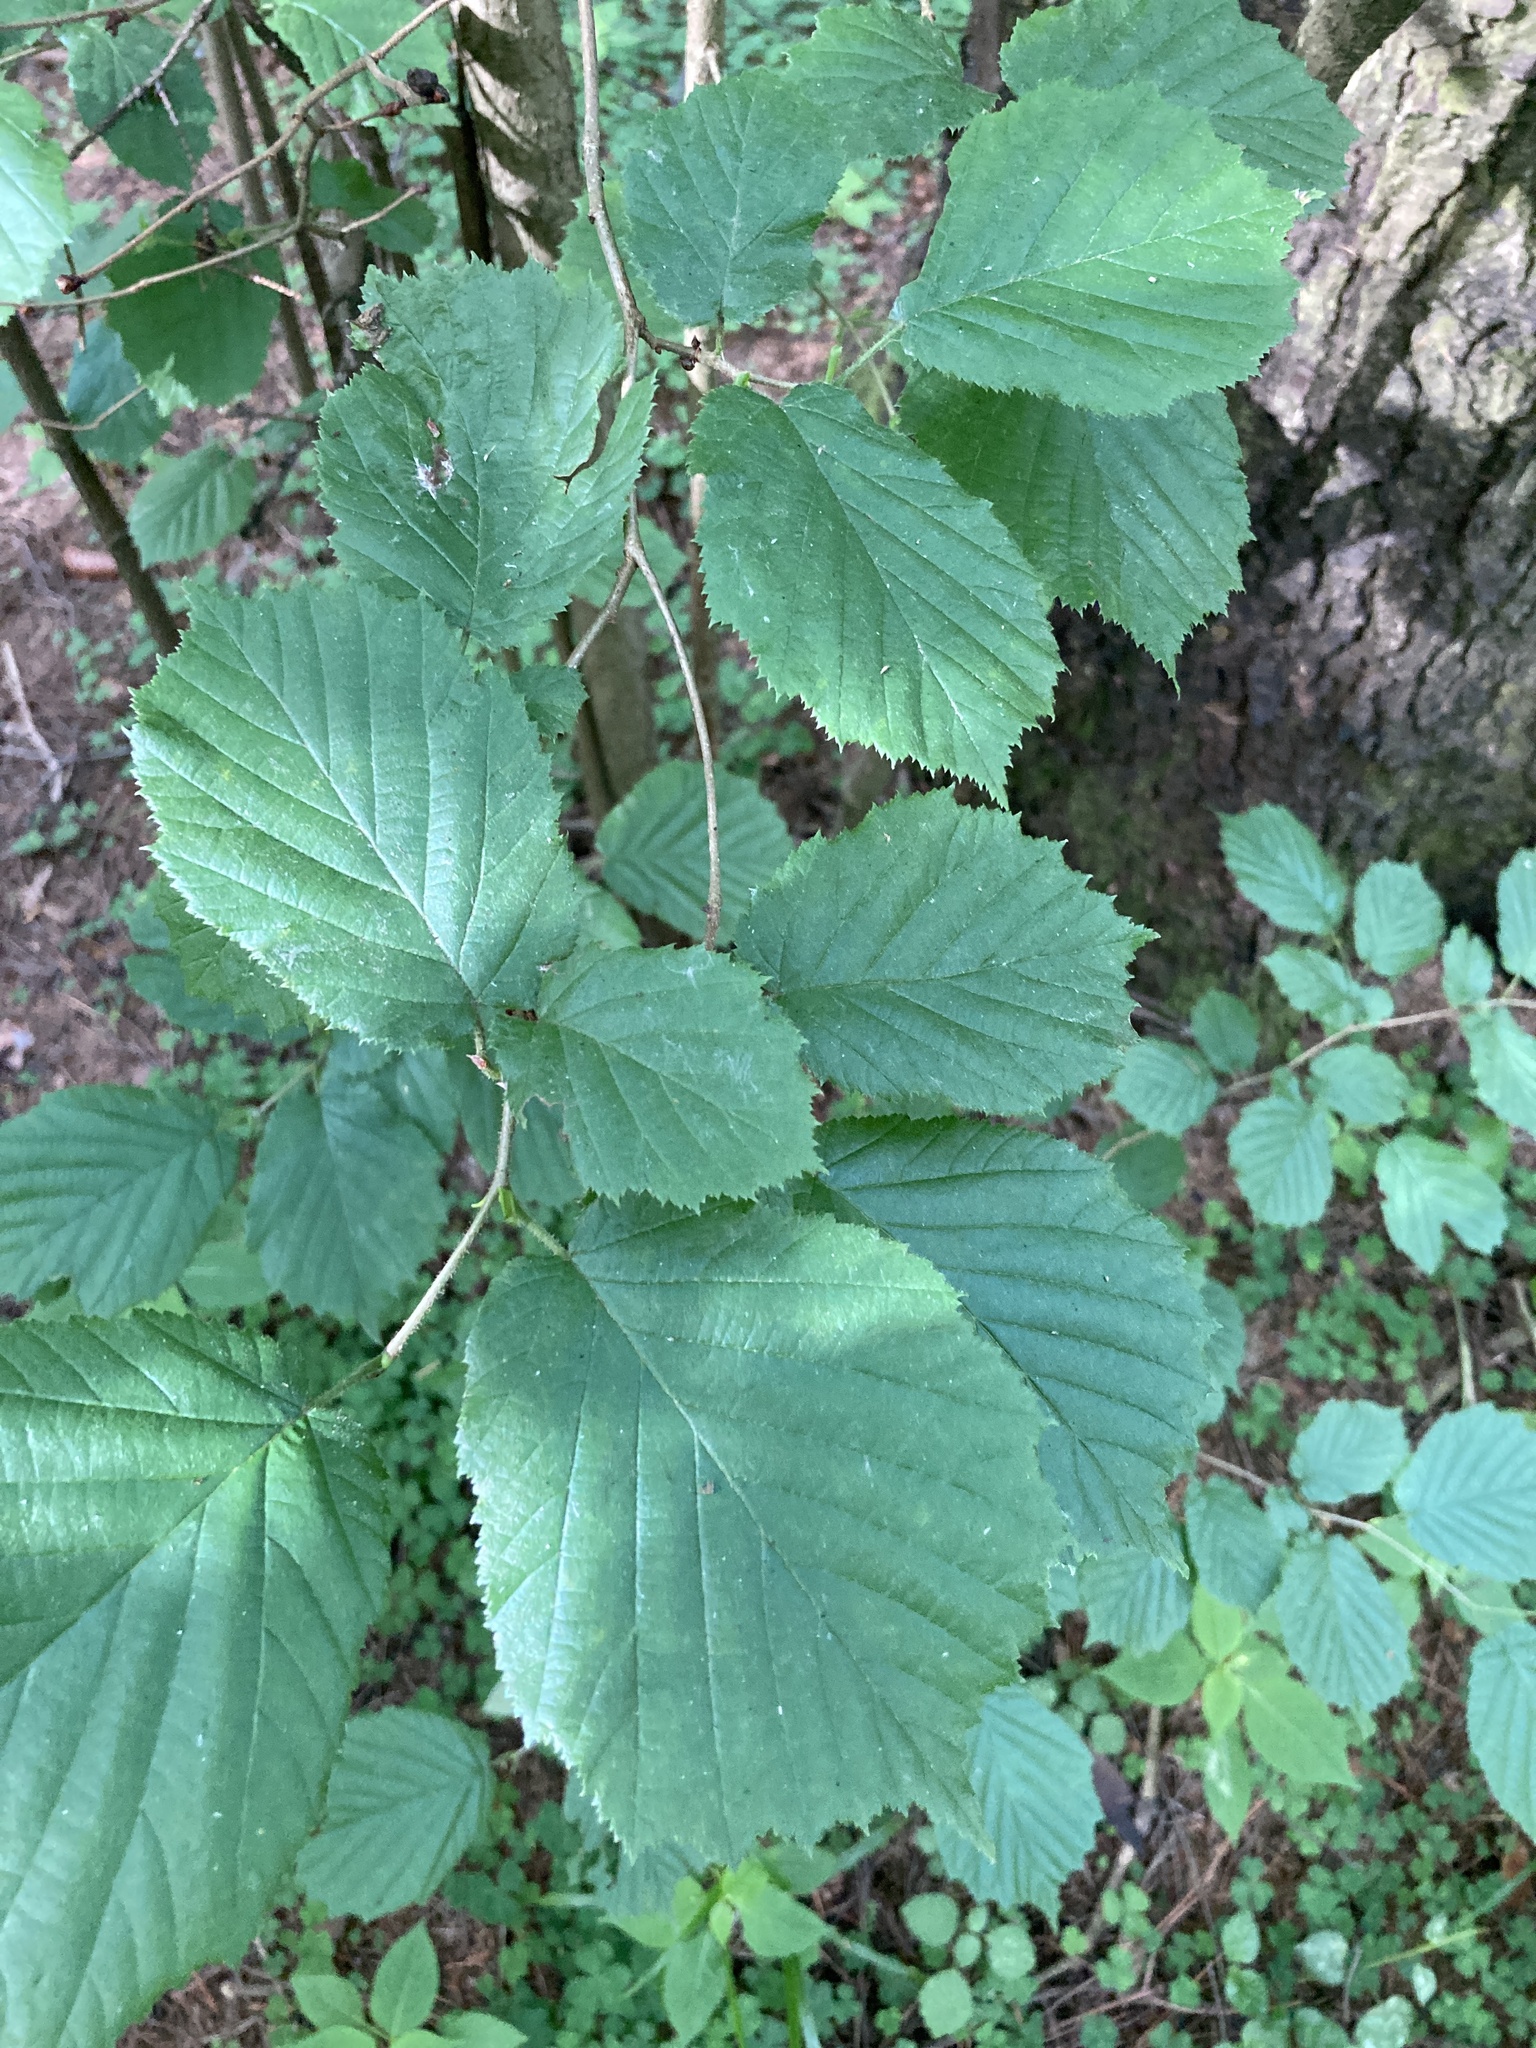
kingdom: Plantae
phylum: Tracheophyta
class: Magnoliopsida
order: Fagales
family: Betulaceae
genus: Corylus
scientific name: Corylus avellana
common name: European hazel
